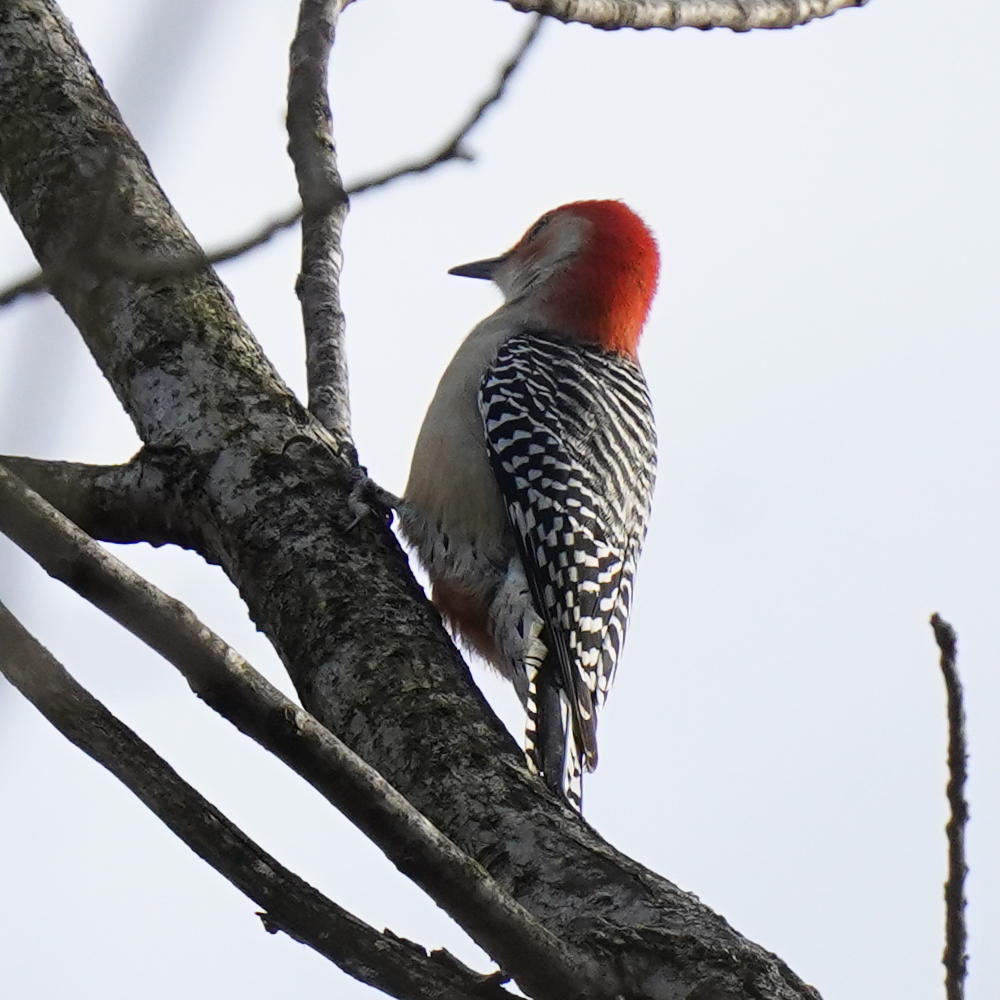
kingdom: Animalia
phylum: Chordata
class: Aves
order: Piciformes
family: Picidae
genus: Melanerpes
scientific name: Melanerpes carolinus
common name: Red-bellied woodpecker
